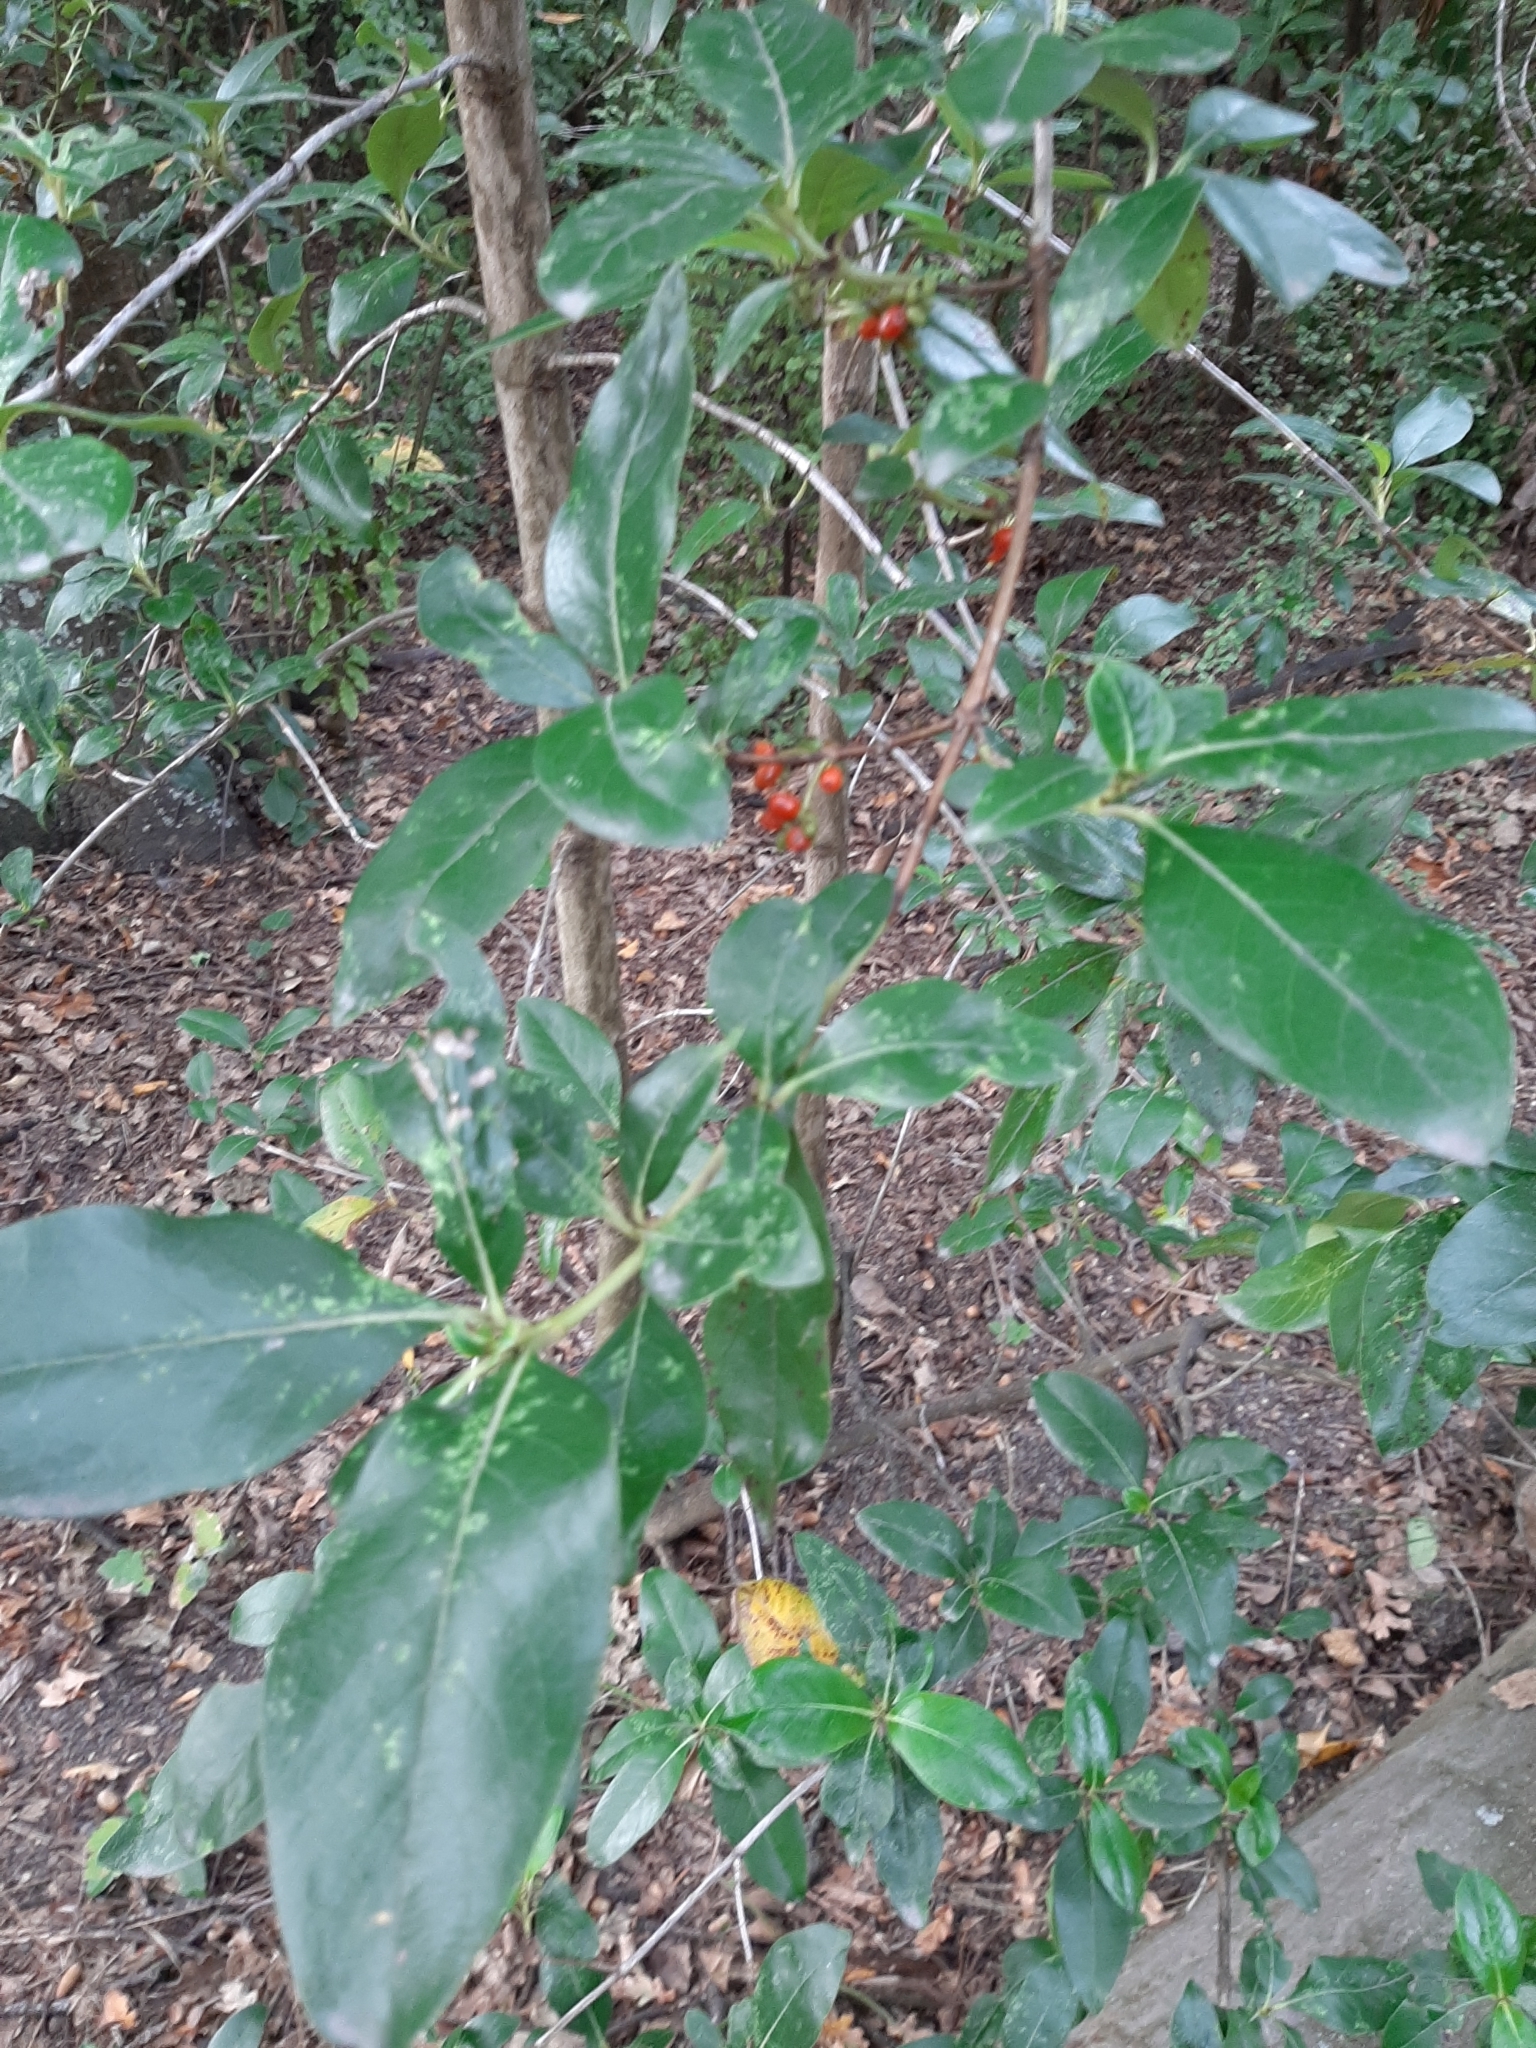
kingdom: Plantae
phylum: Tracheophyta
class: Magnoliopsida
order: Gentianales
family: Rubiaceae
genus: Coprosma
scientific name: Coprosma robusta
